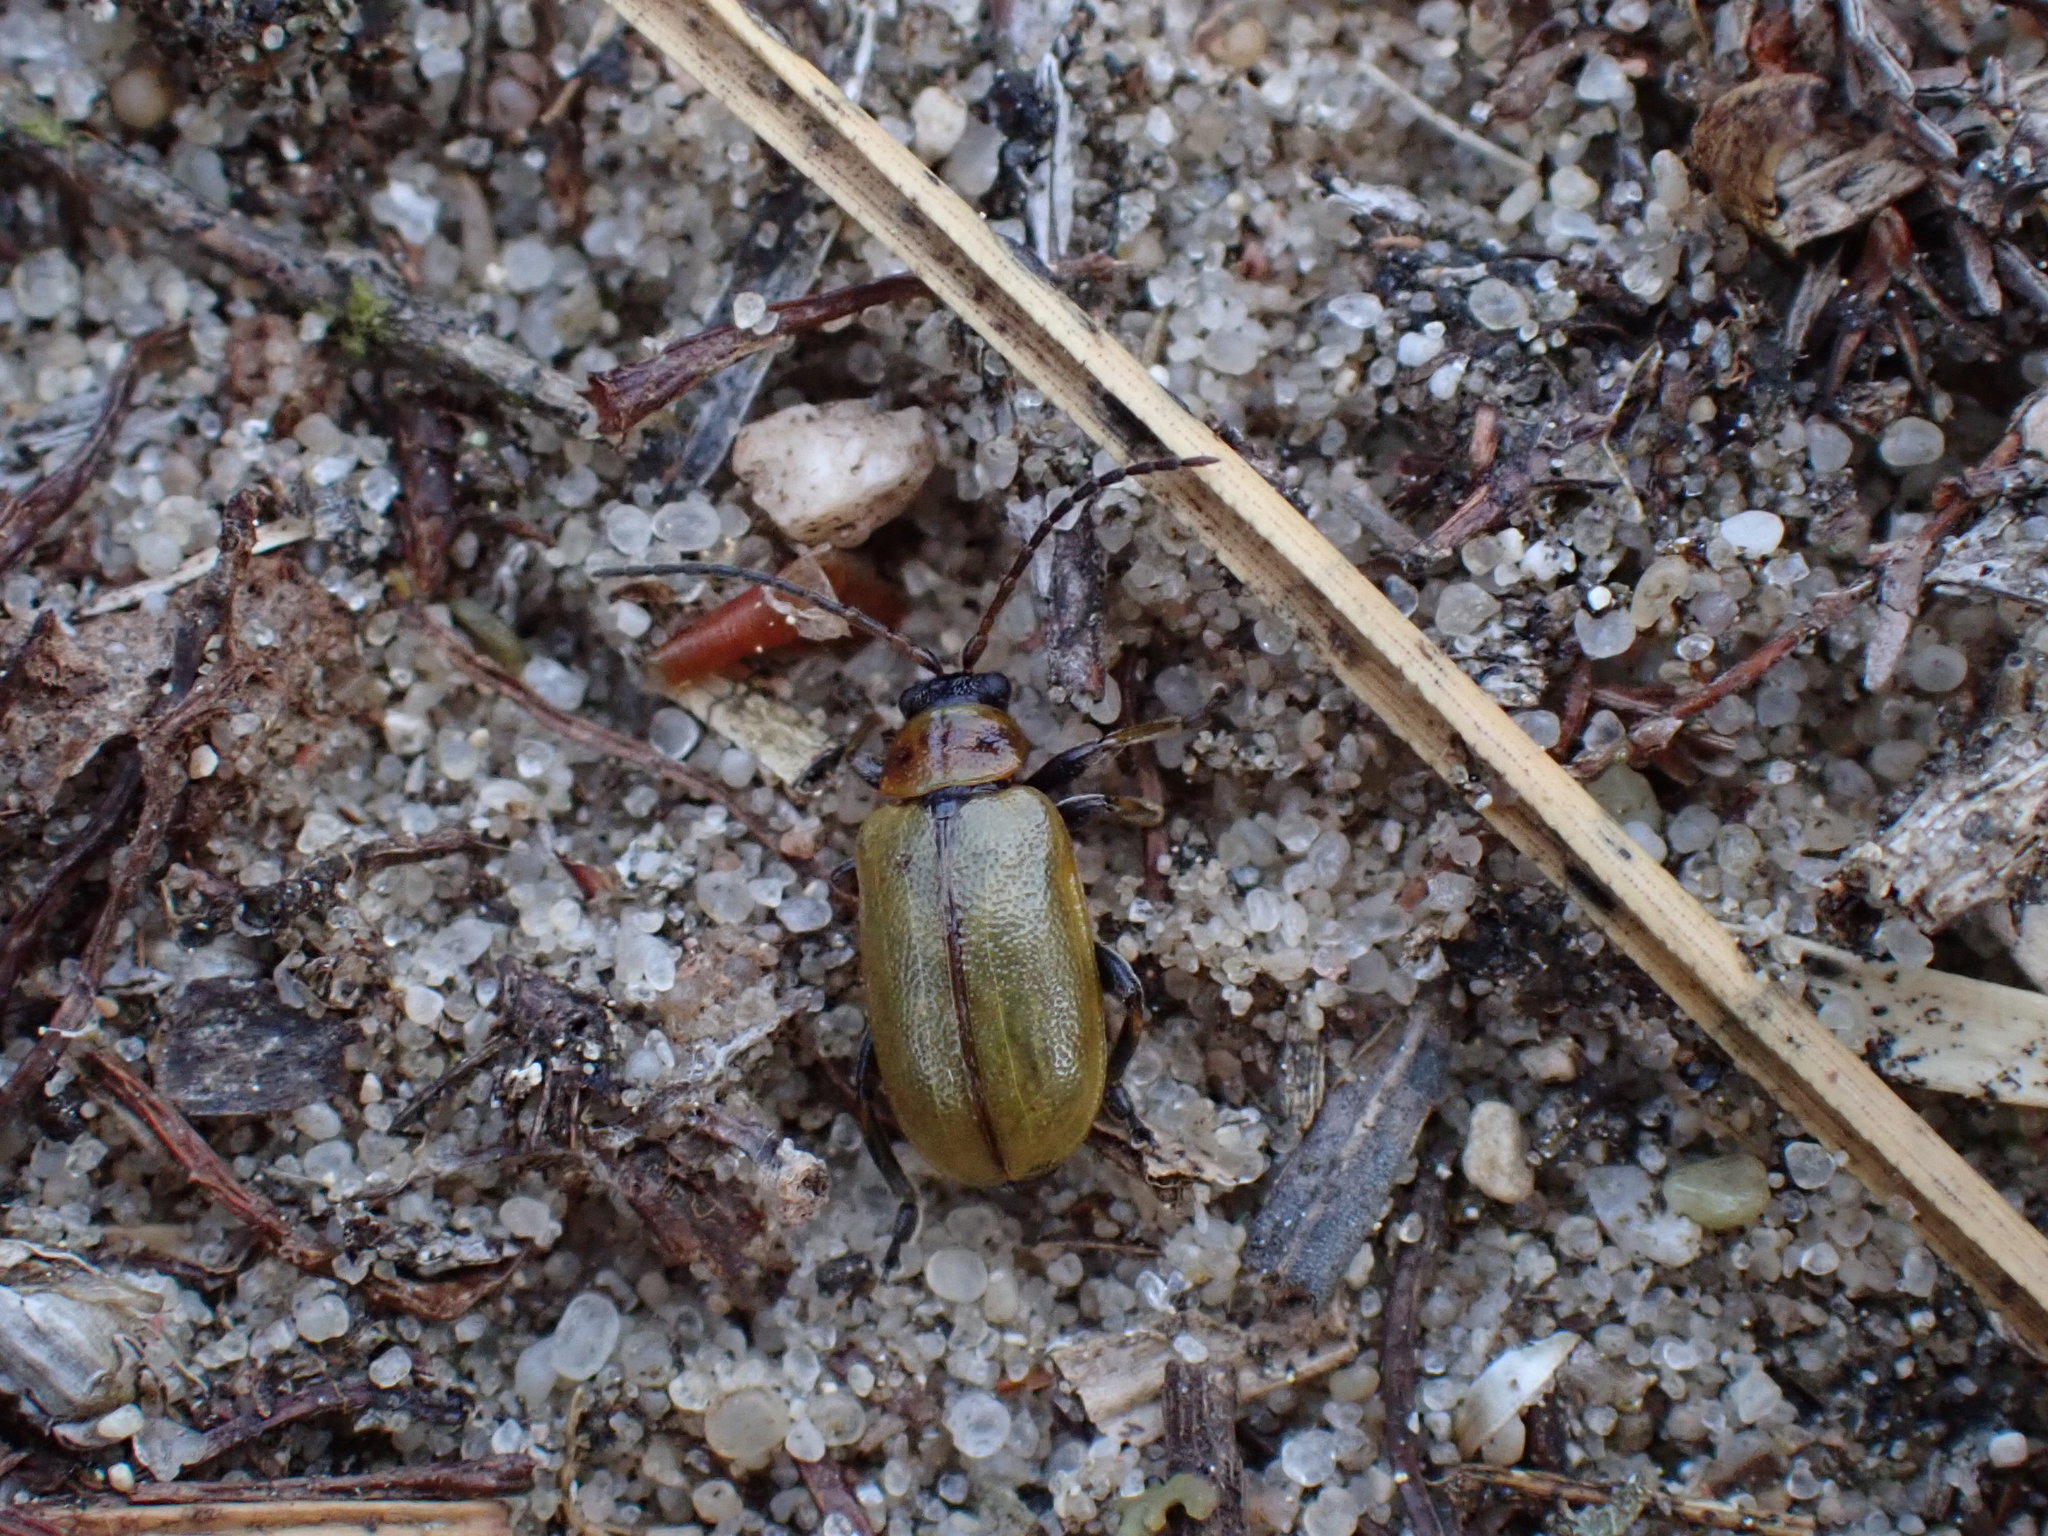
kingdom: Animalia
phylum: Arthropoda
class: Insecta
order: Coleoptera
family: Chrysomelidae
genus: Lochmaea
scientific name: Lochmaea suturalis
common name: Heather beetle
